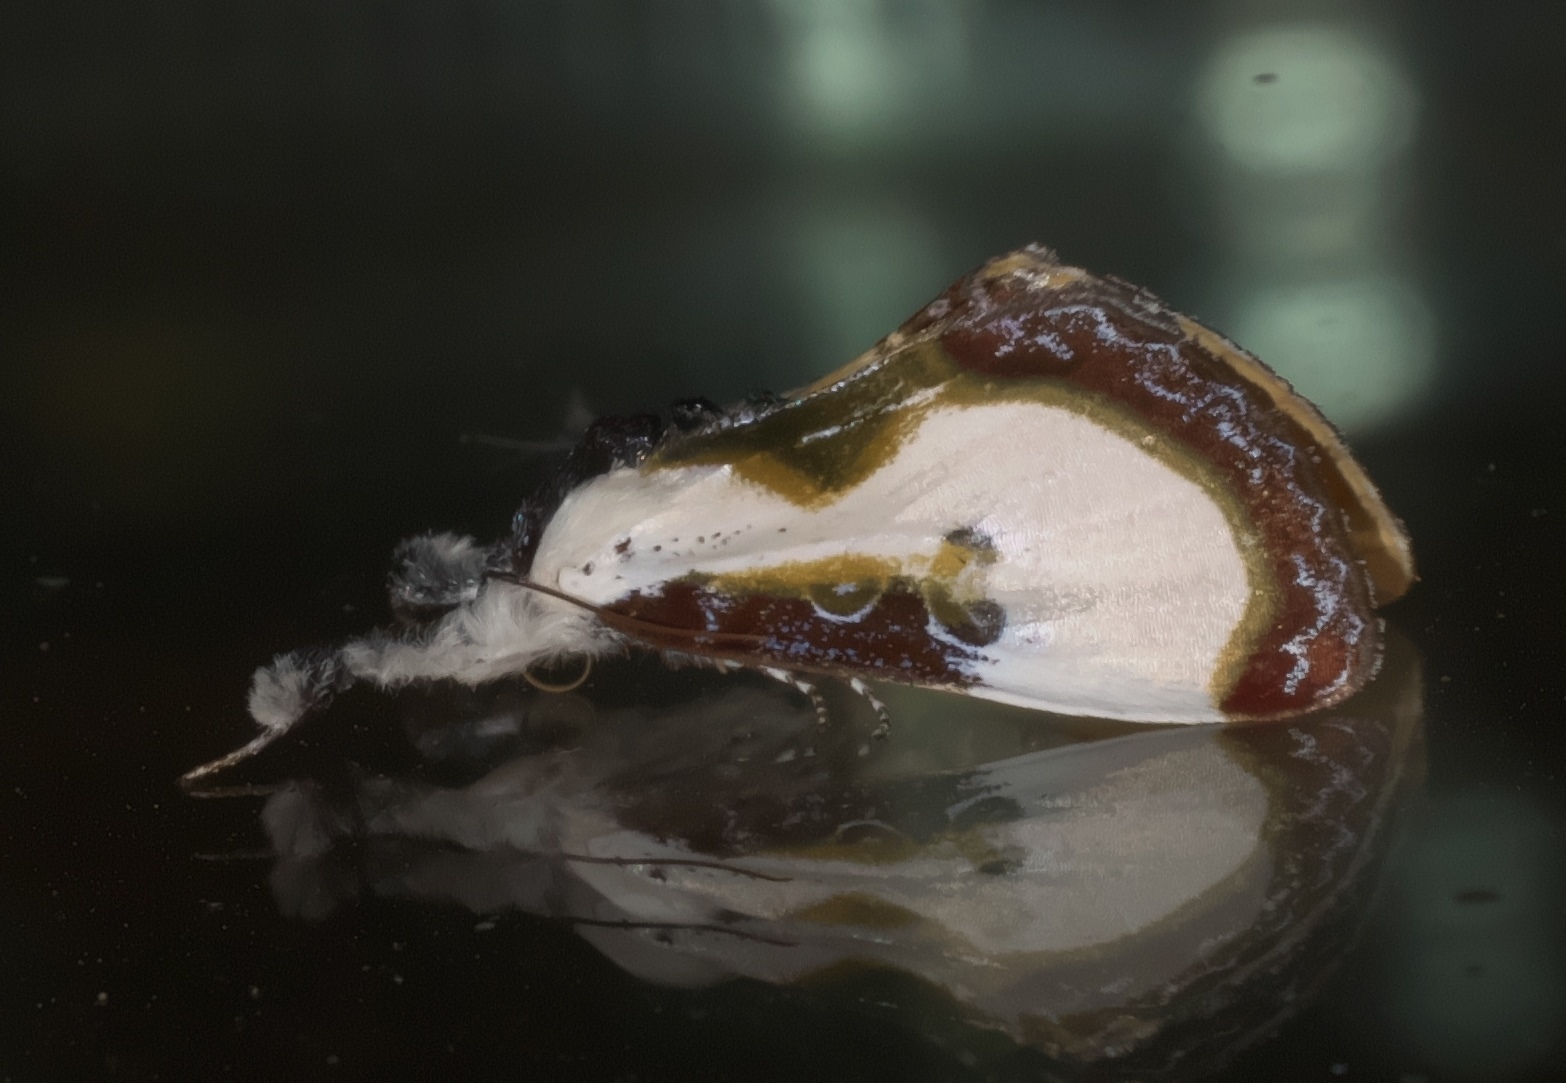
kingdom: Animalia
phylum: Arthropoda
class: Insecta
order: Lepidoptera
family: Noctuidae
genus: Eudryas
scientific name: Eudryas grata
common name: Beautiful wood-nymph
